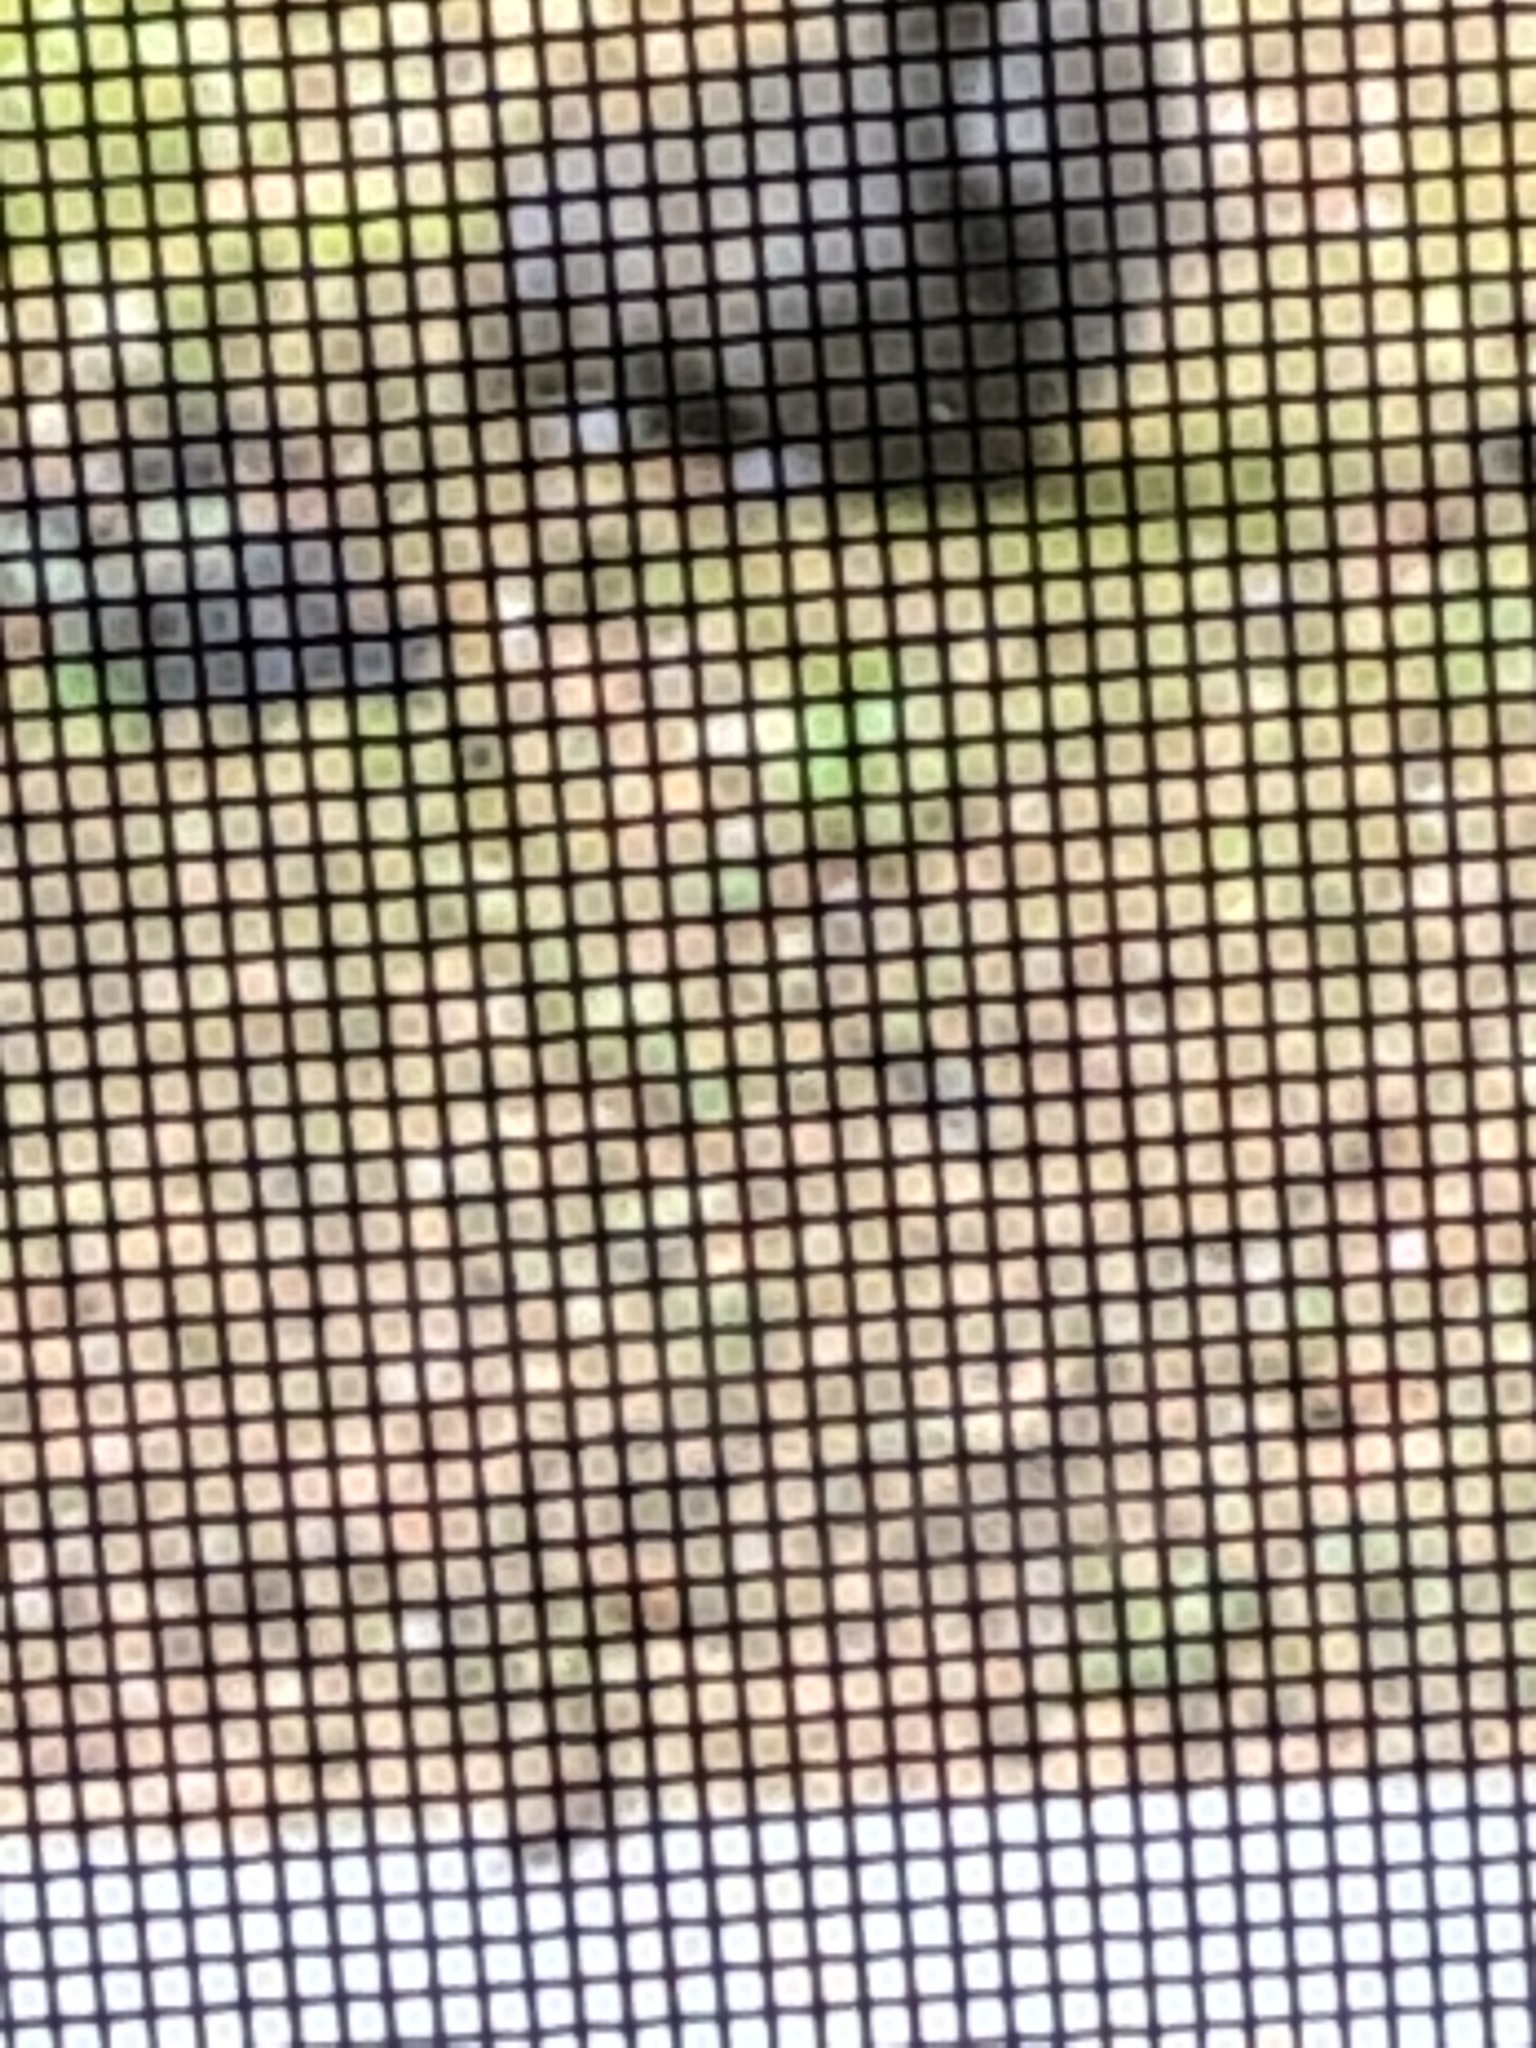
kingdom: Animalia
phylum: Chordata
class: Mammalia
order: Rodentia
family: Sciuridae
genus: Sciurus
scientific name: Sciurus carolinensis
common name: Eastern gray squirrel
